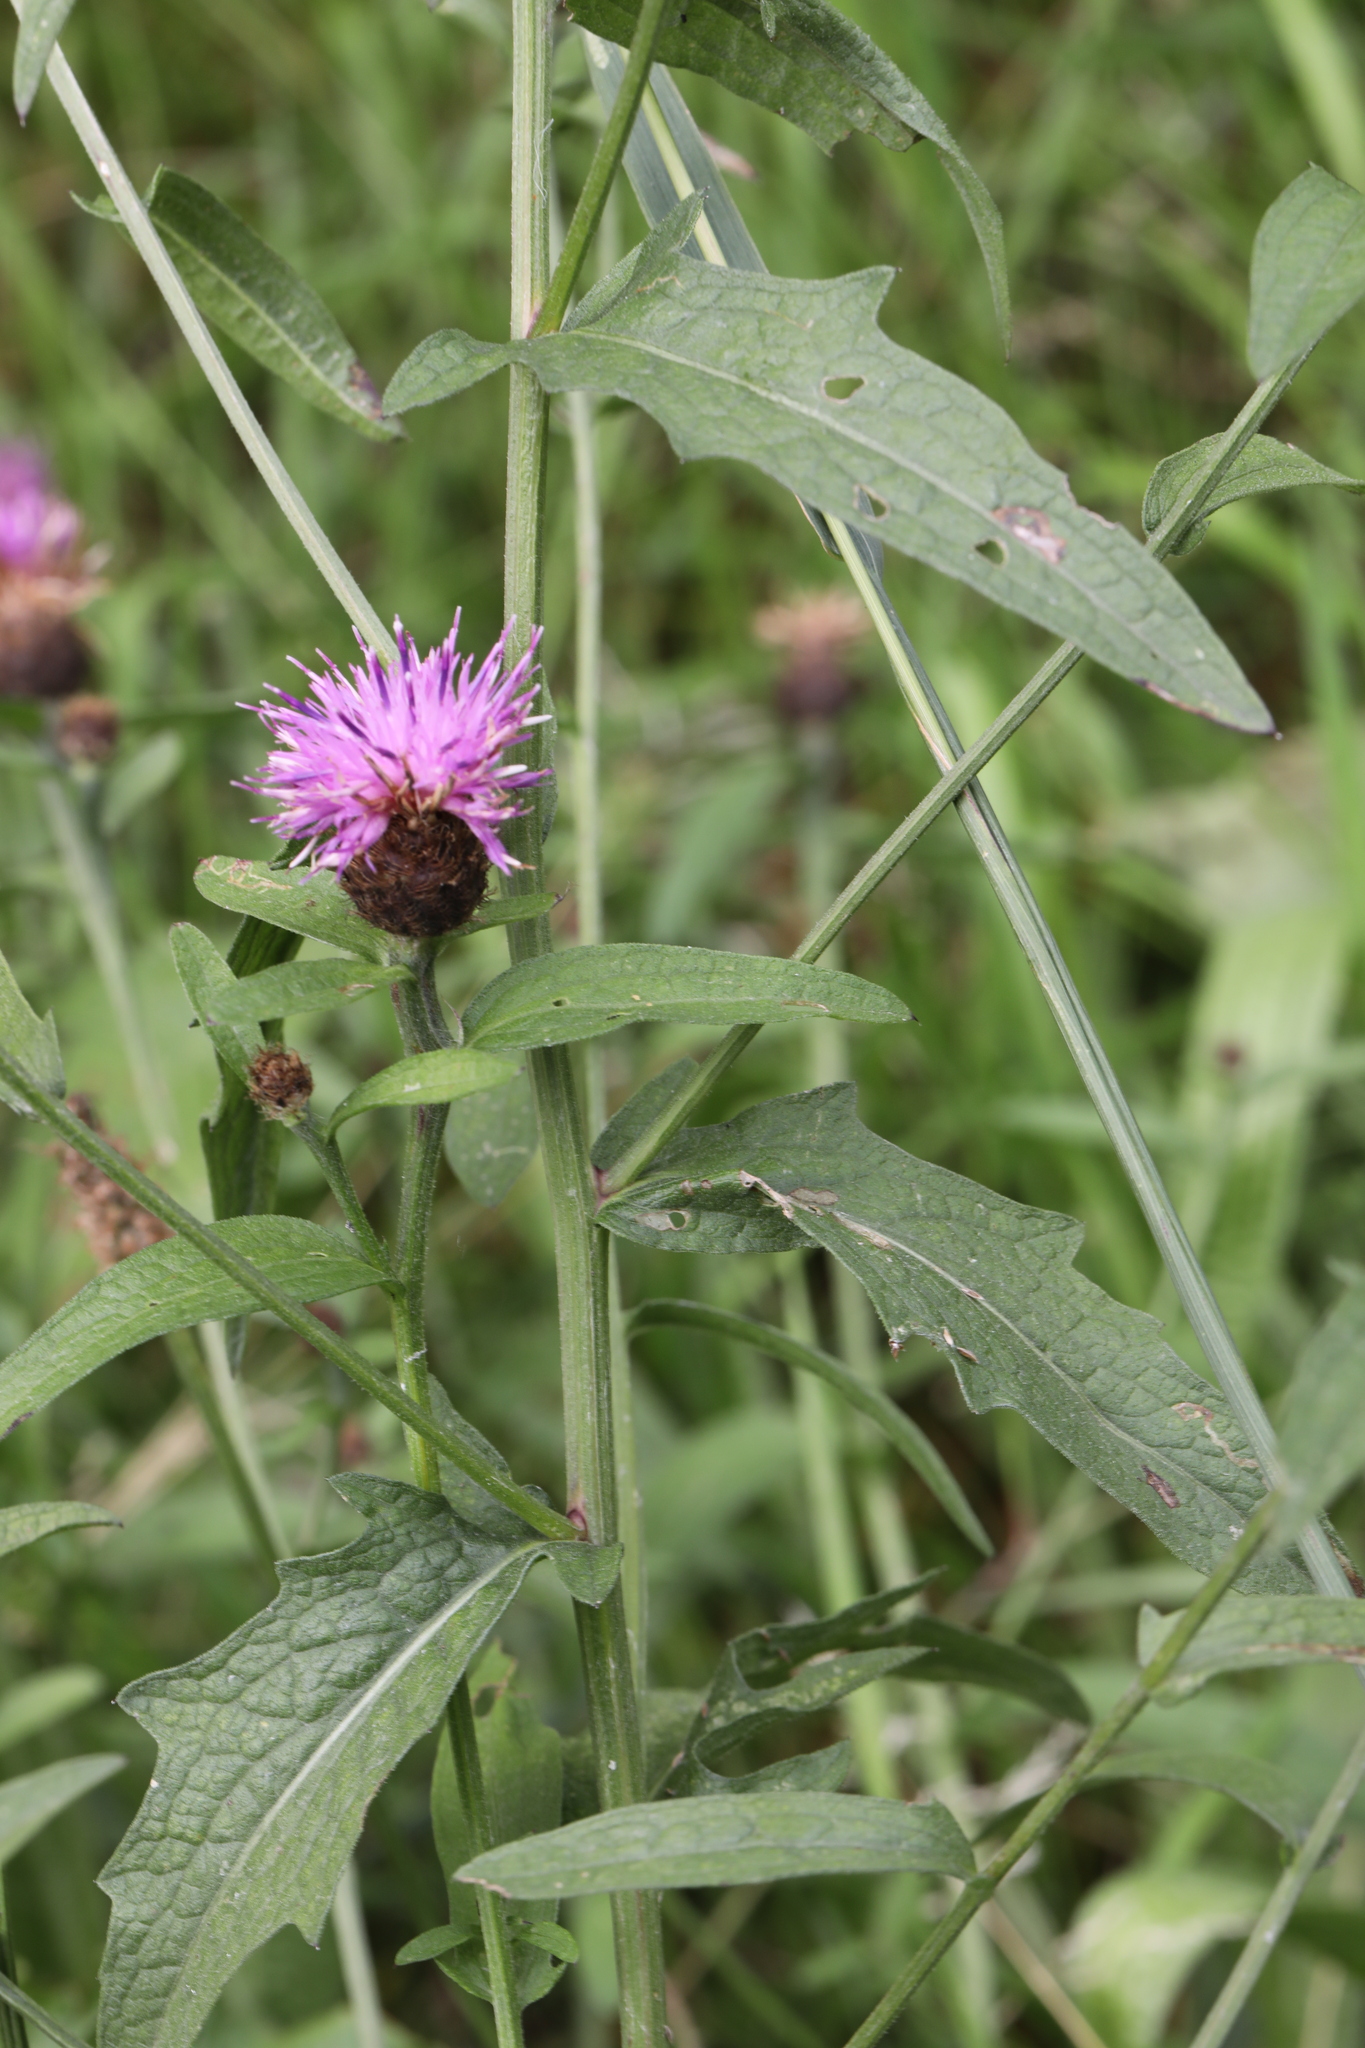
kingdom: Plantae
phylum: Tracheophyta
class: Magnoliopsida
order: Asterales
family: Asteraceae
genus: Centaurea
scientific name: Centaurea nigra
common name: Lesser knapweed
